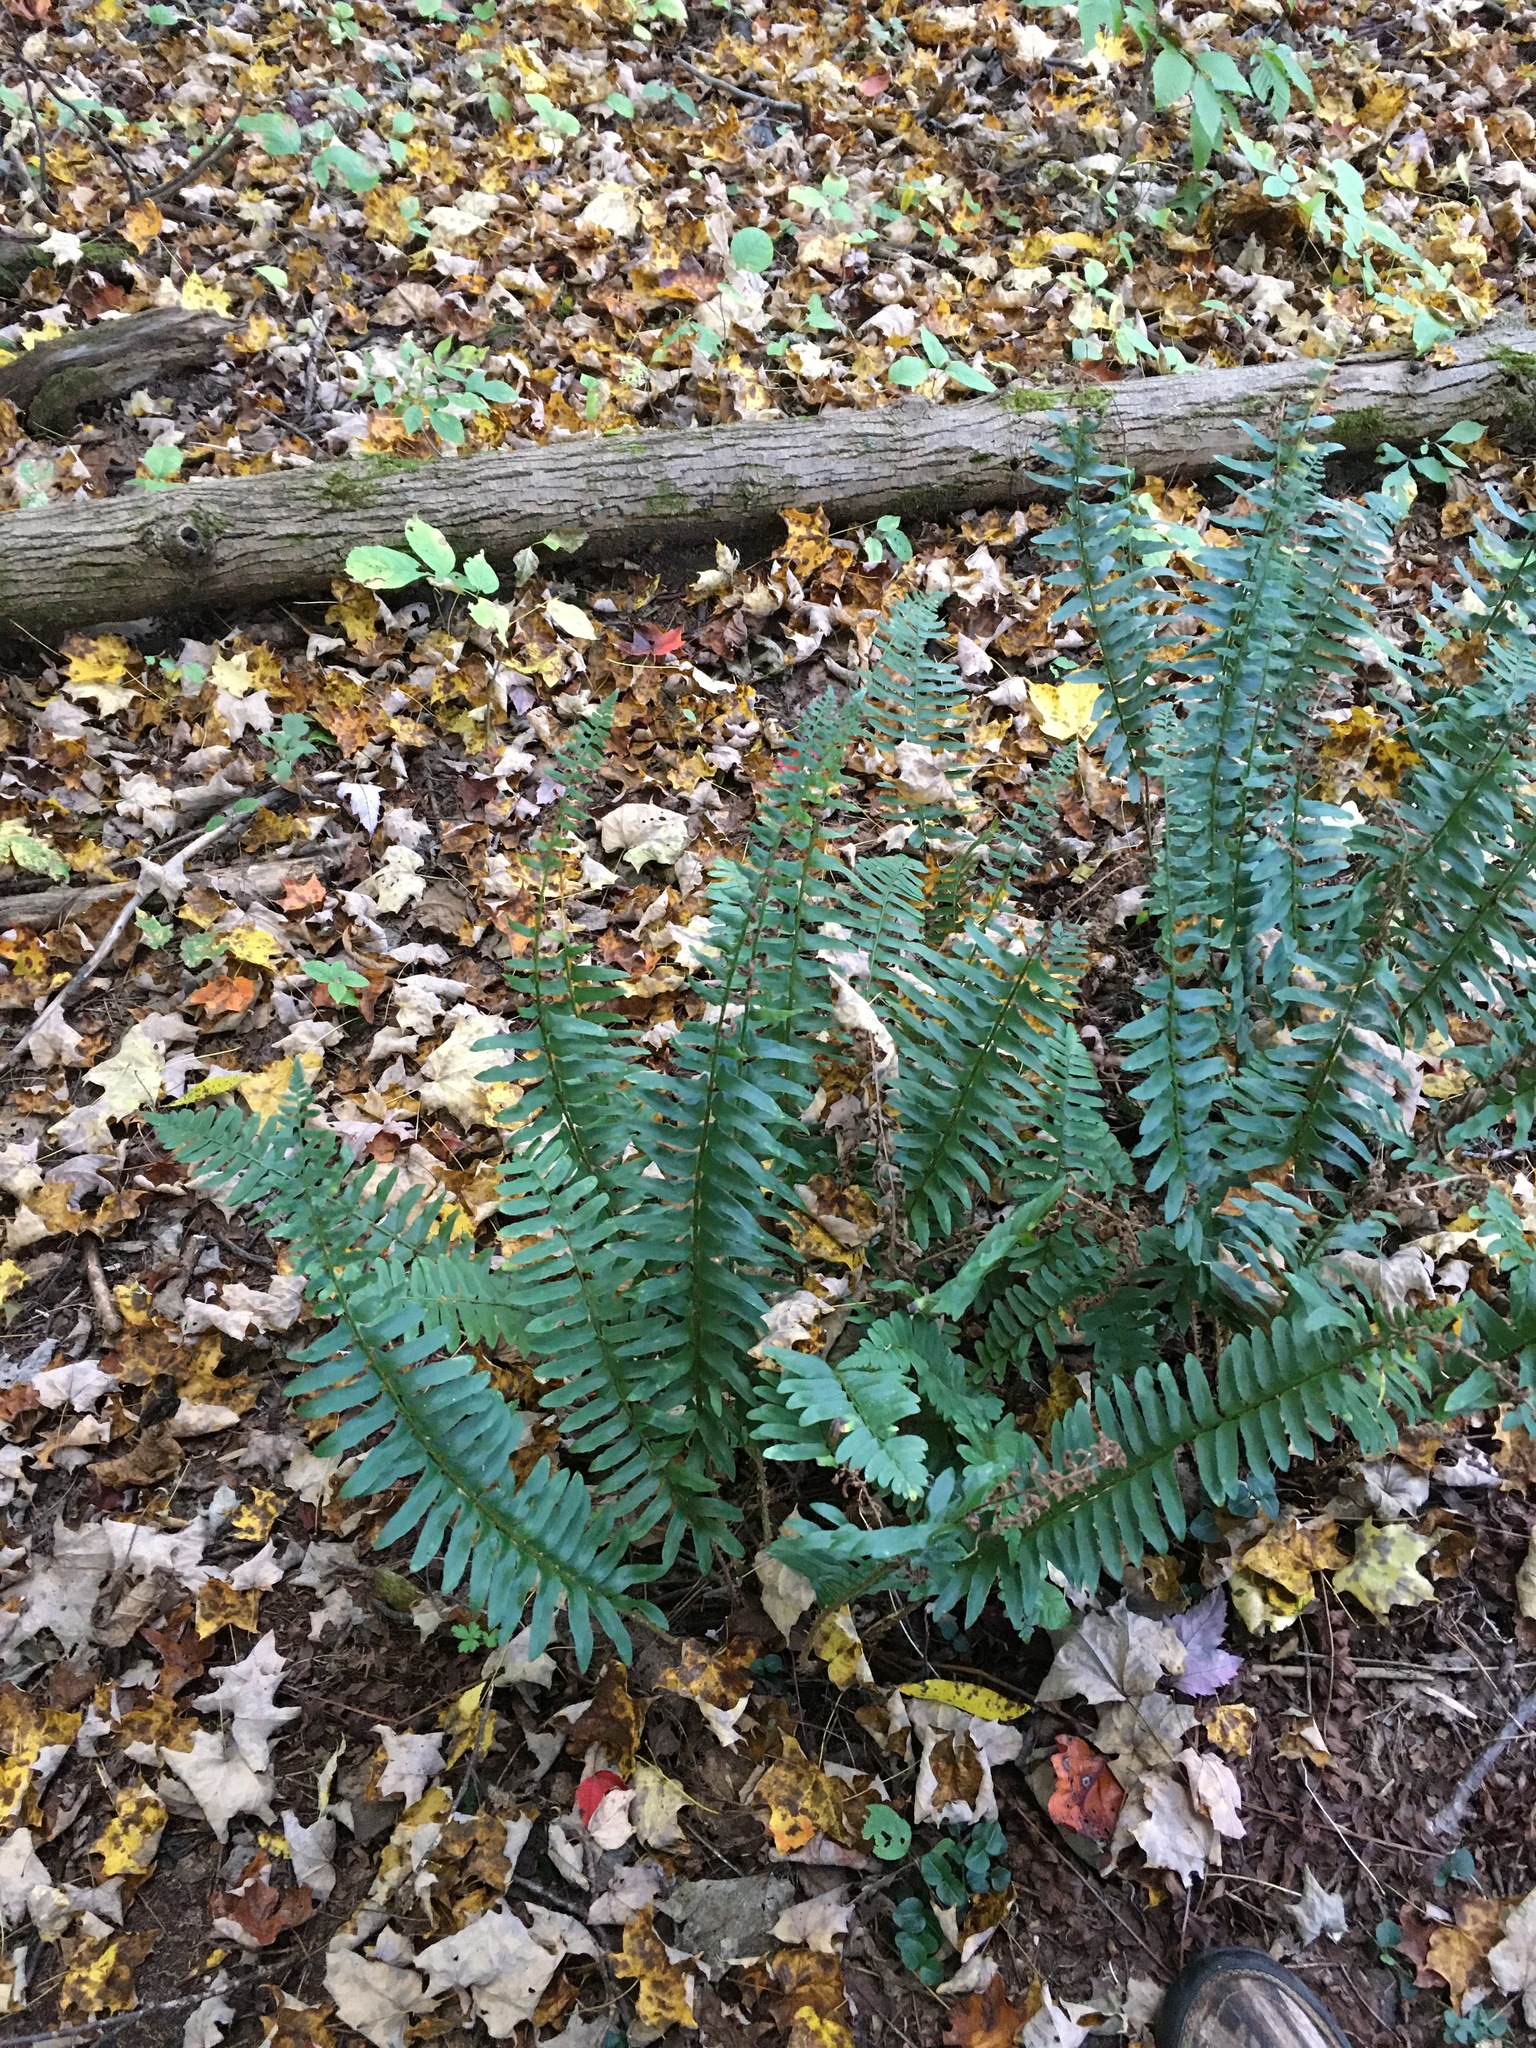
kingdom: Plantae
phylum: Tracheophyta
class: Polypodiopsida
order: Polypodiales
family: Dryopteridaceae
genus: Polystichum
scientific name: Polystichum acrostichoides
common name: Christmas fern
